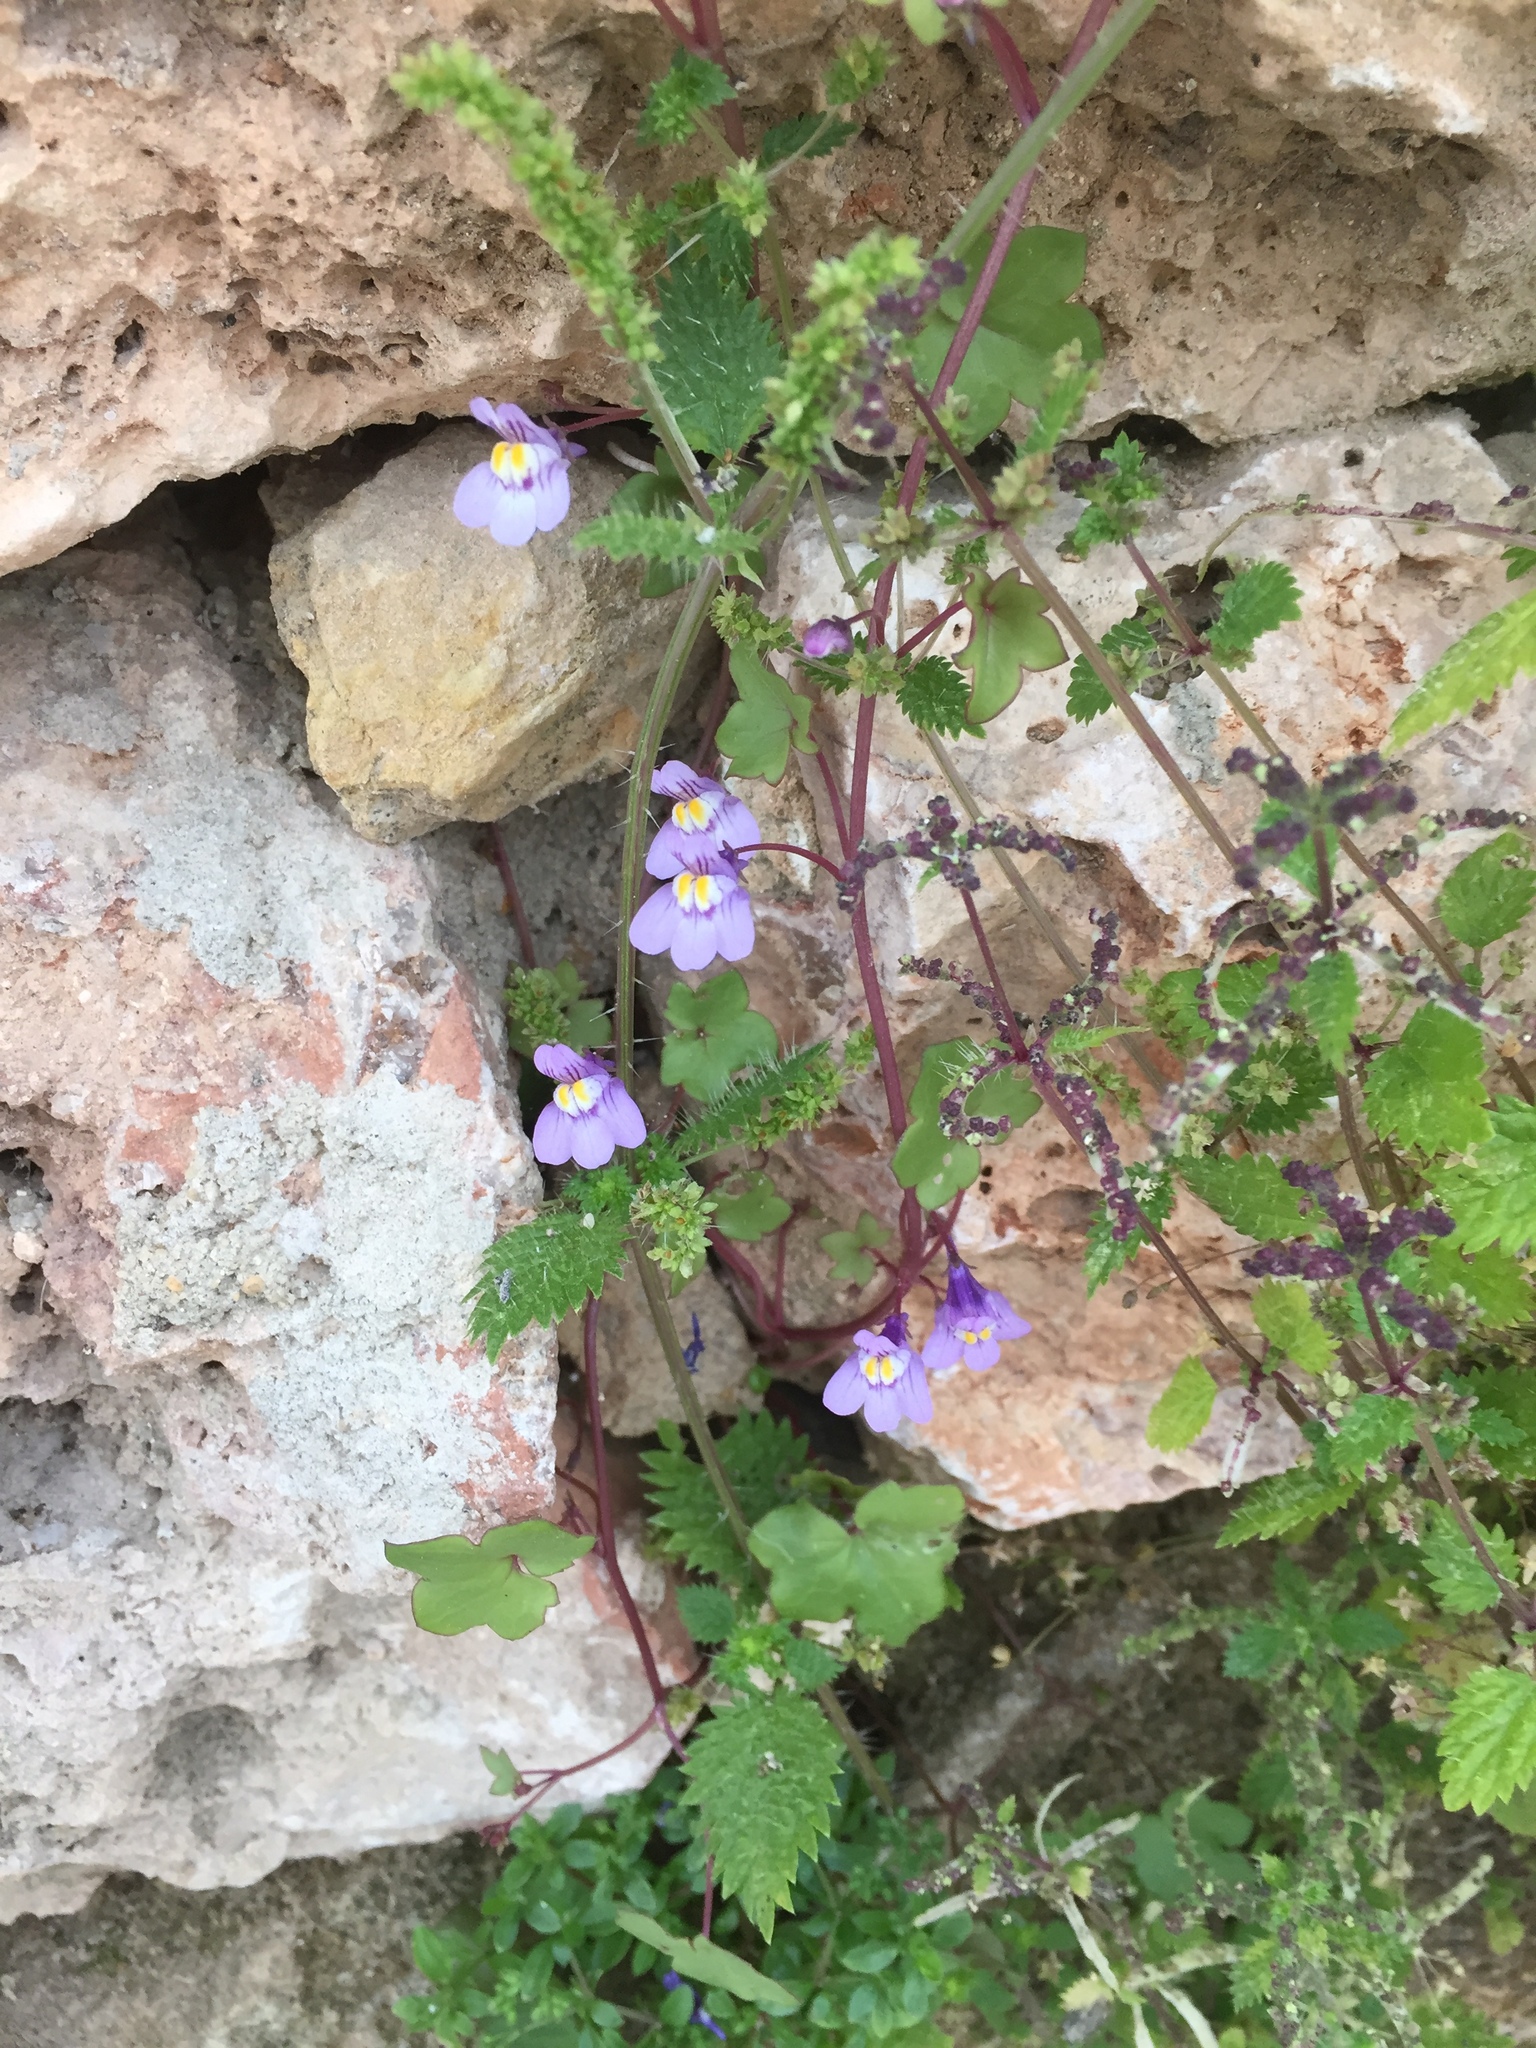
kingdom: Plantae
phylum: Tracheophyta
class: Magnoliopsida
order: Lamiales
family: Plantaginaceae
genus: Cymbalaria
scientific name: Cymbalaria muralis
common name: Ivy-leaved toadflax
